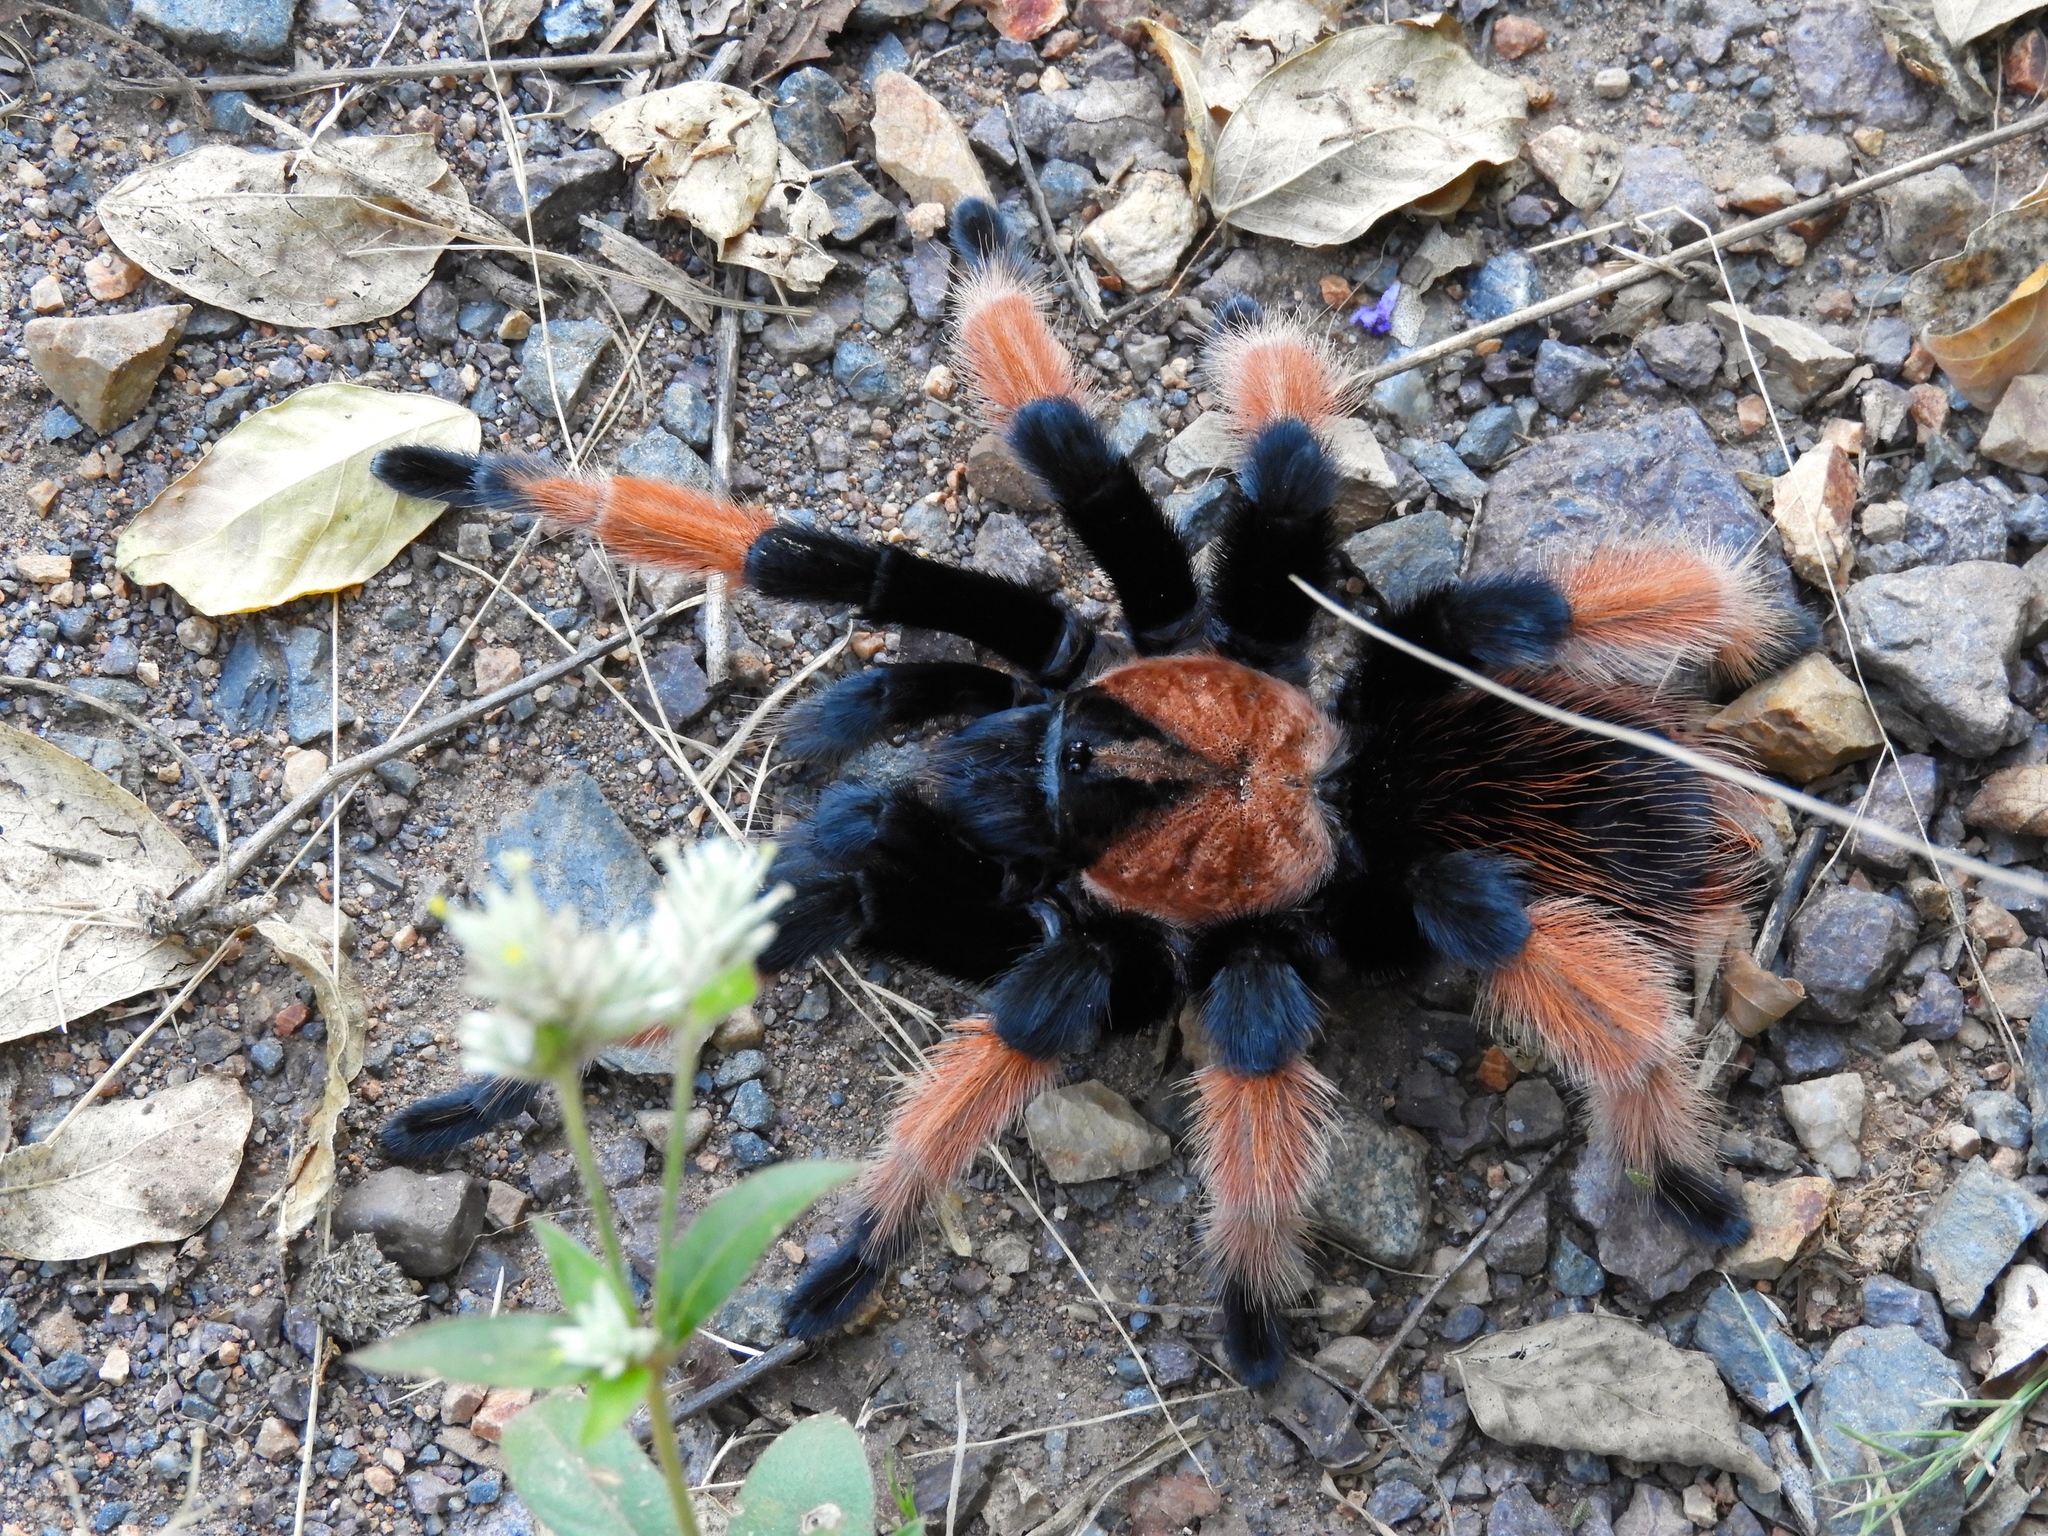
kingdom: Animalia
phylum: Arthropoda
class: Arachnida
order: Araneae
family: Theraphosidae
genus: Brachypelma
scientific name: Brachypelma emilia
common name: Mexican redleg
